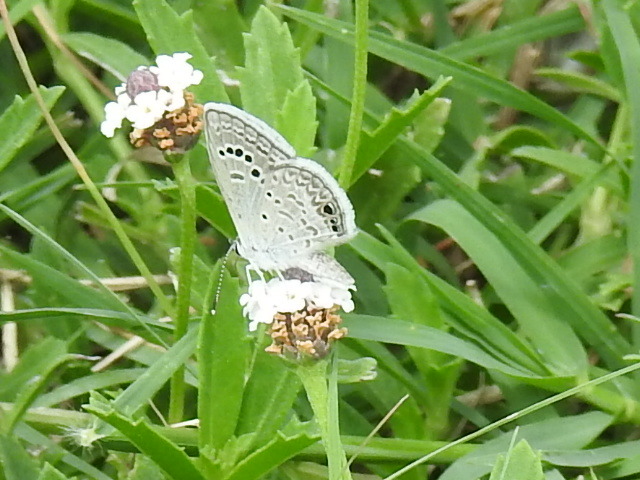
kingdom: Animalia
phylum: Arthropoda
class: Insecta
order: Lepidoptera
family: Lycaenidae
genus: Echinargus
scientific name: Echinargus isola
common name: Reakirt's blue
